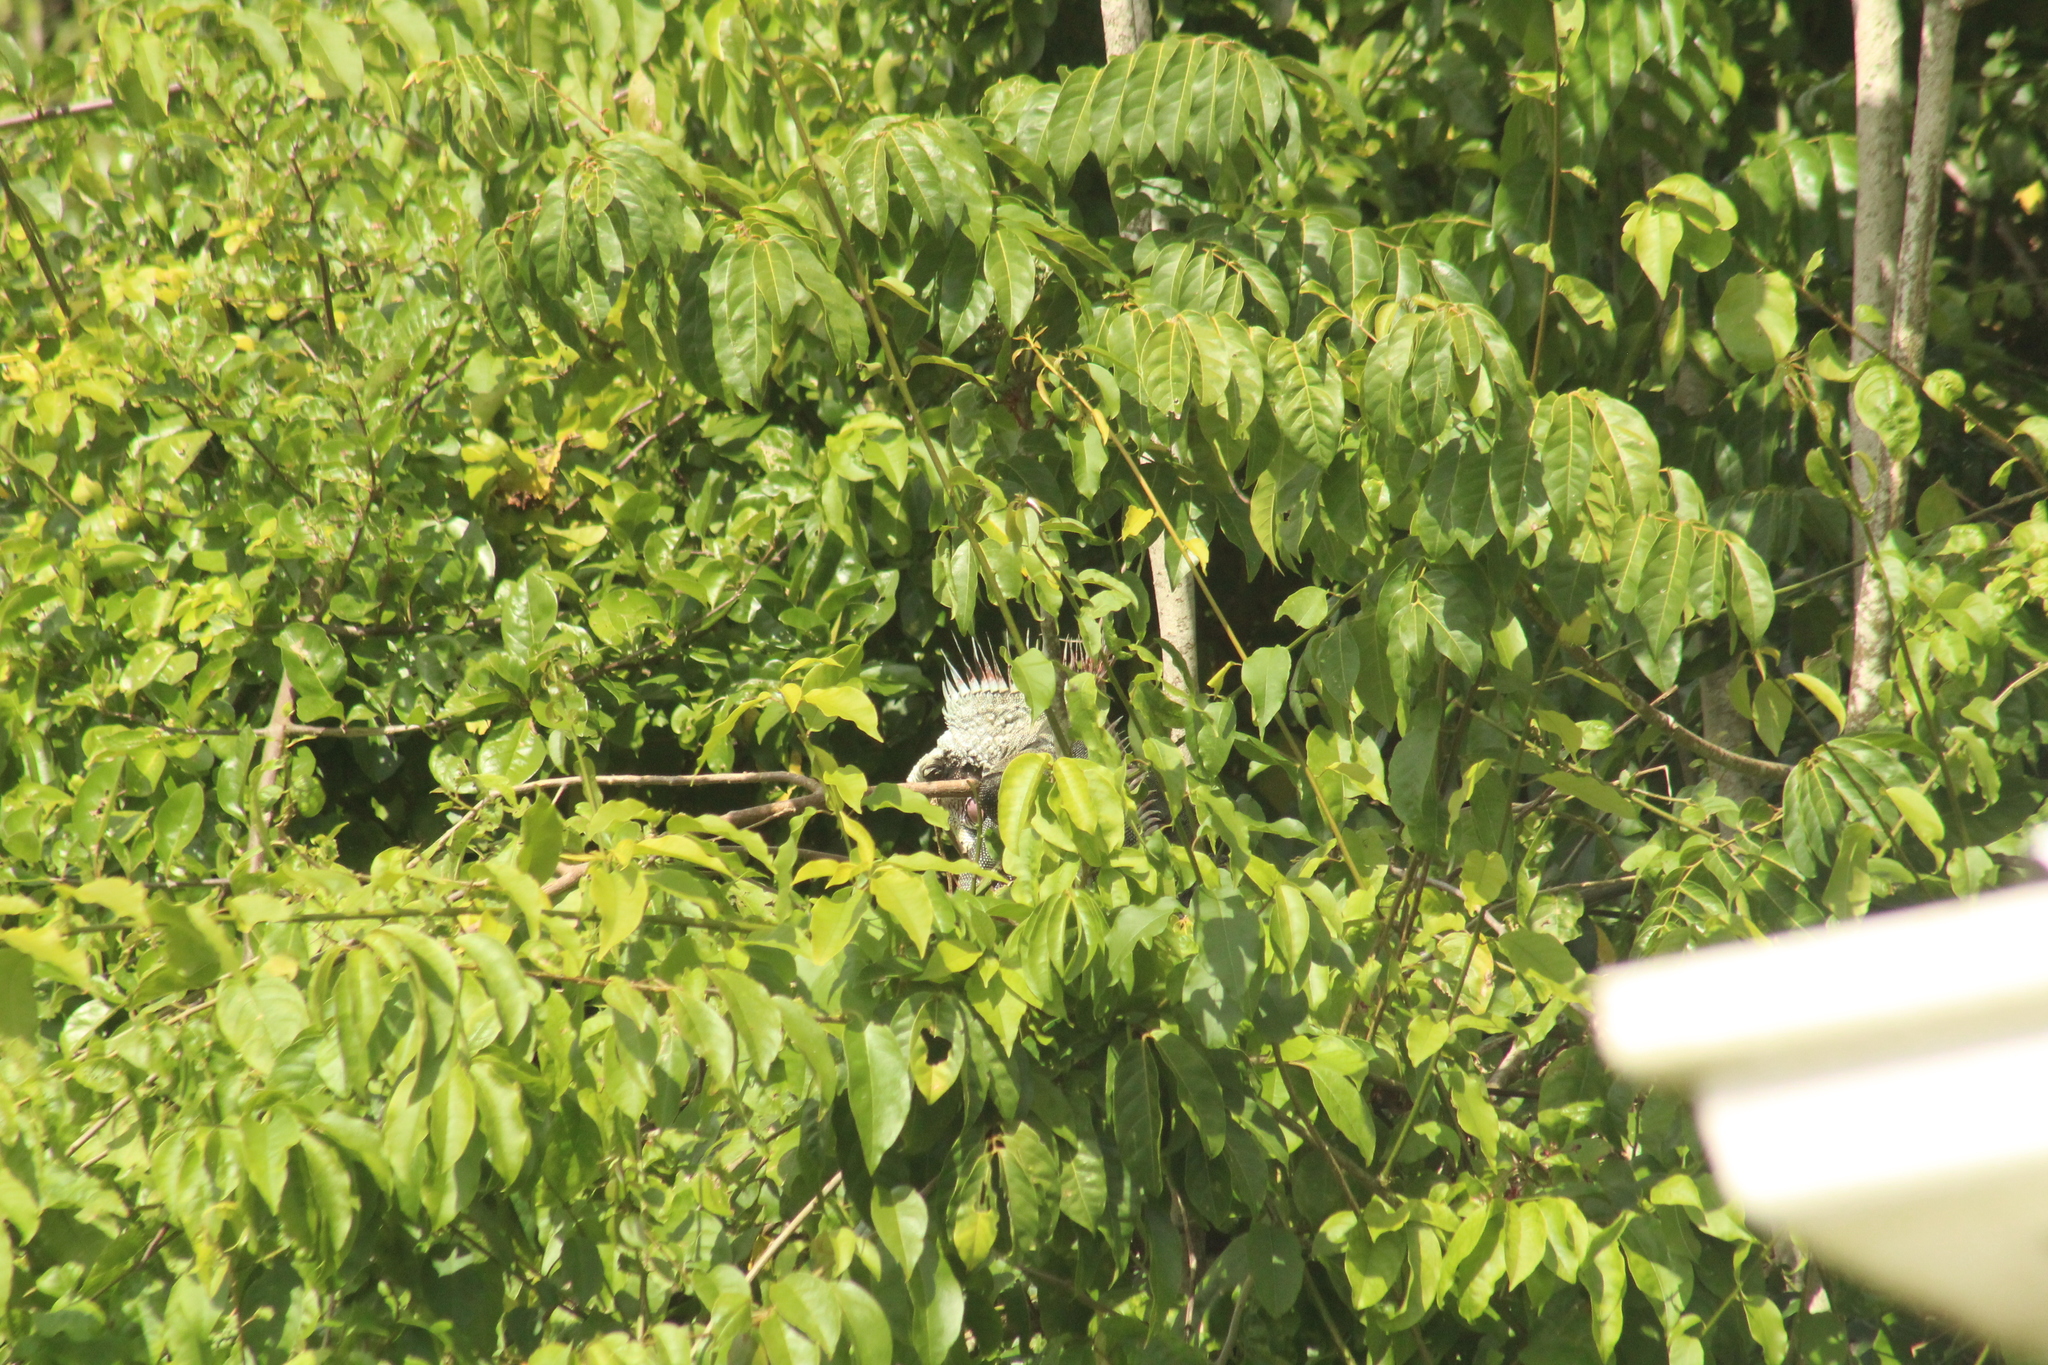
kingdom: Animalia
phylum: Chordata
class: Squamata
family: Iguanidae
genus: Iguana
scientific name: Iguana iguana
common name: Green iguana
